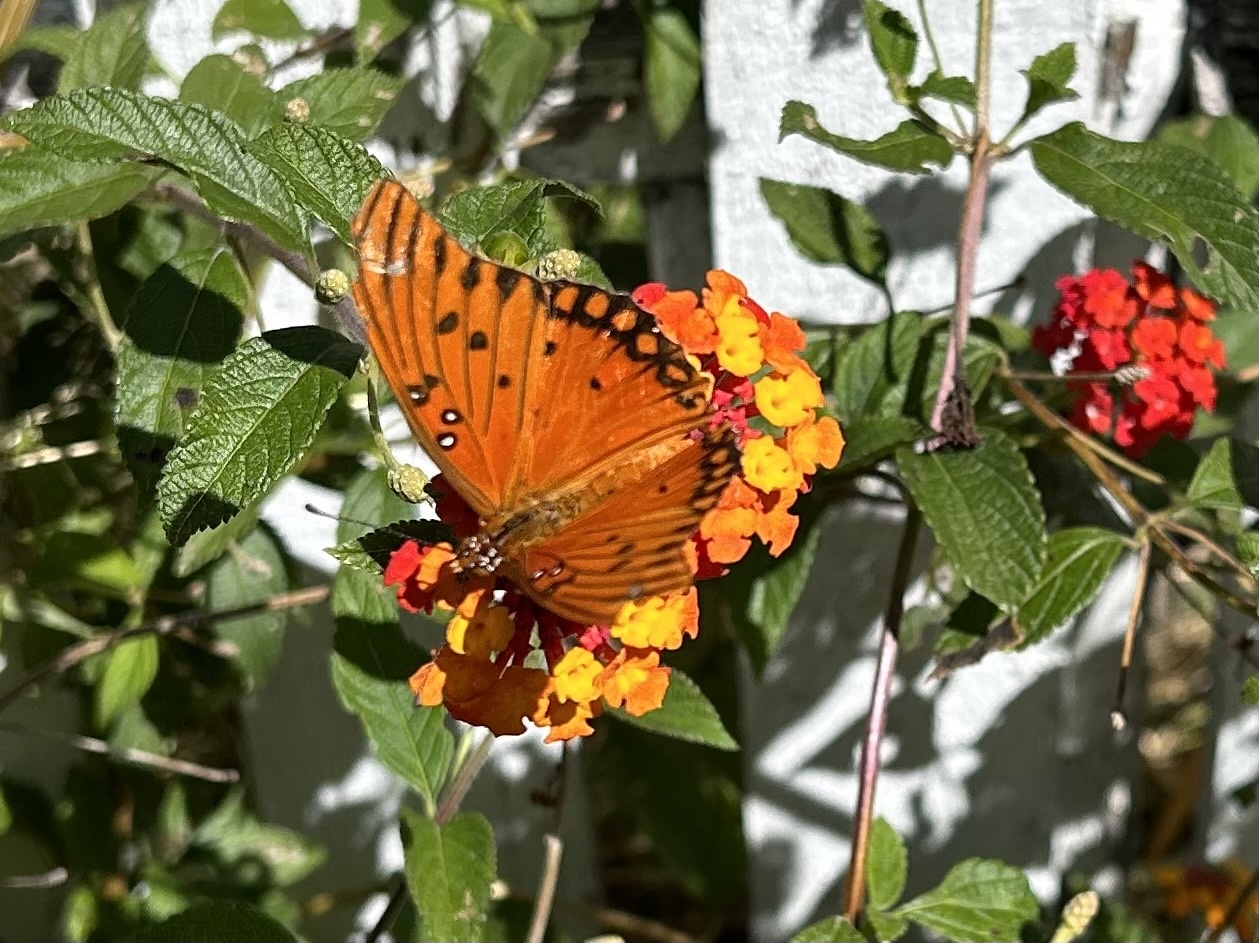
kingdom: Animalia
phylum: Arthropoda
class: Insecta
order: Lepidoptera
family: Nymphalidae
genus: Dione
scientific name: Dione vanillae
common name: Gulf fritillary
